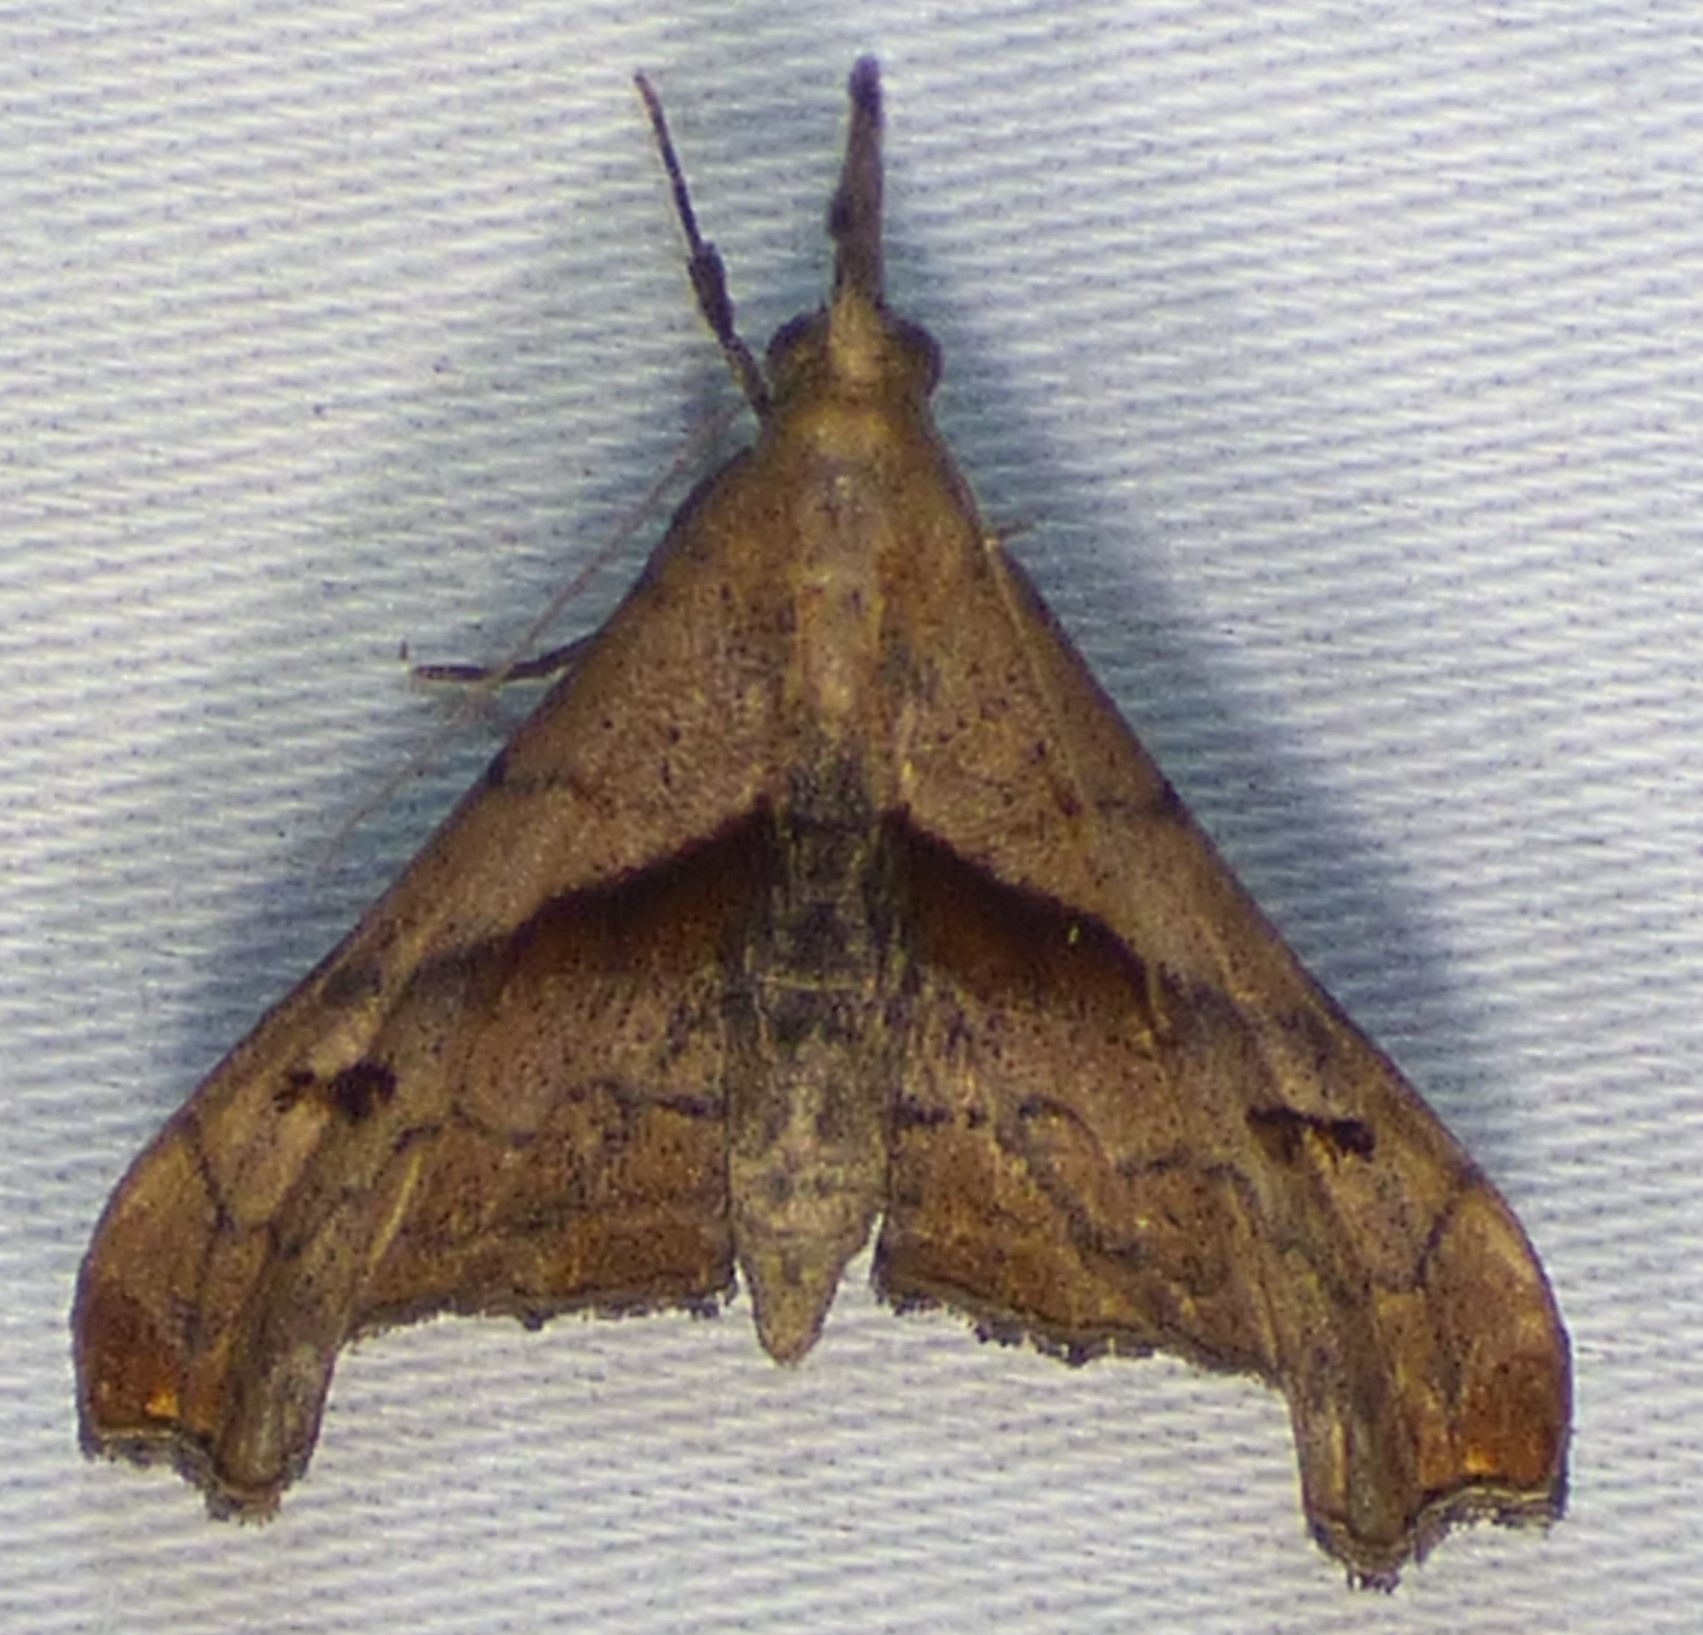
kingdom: Animalia
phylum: Arthropoda
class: Insecta
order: Lepidoptera
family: Erebidae
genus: Palthis
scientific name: Palthis angulalis
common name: Dark-spotted palthis moth
